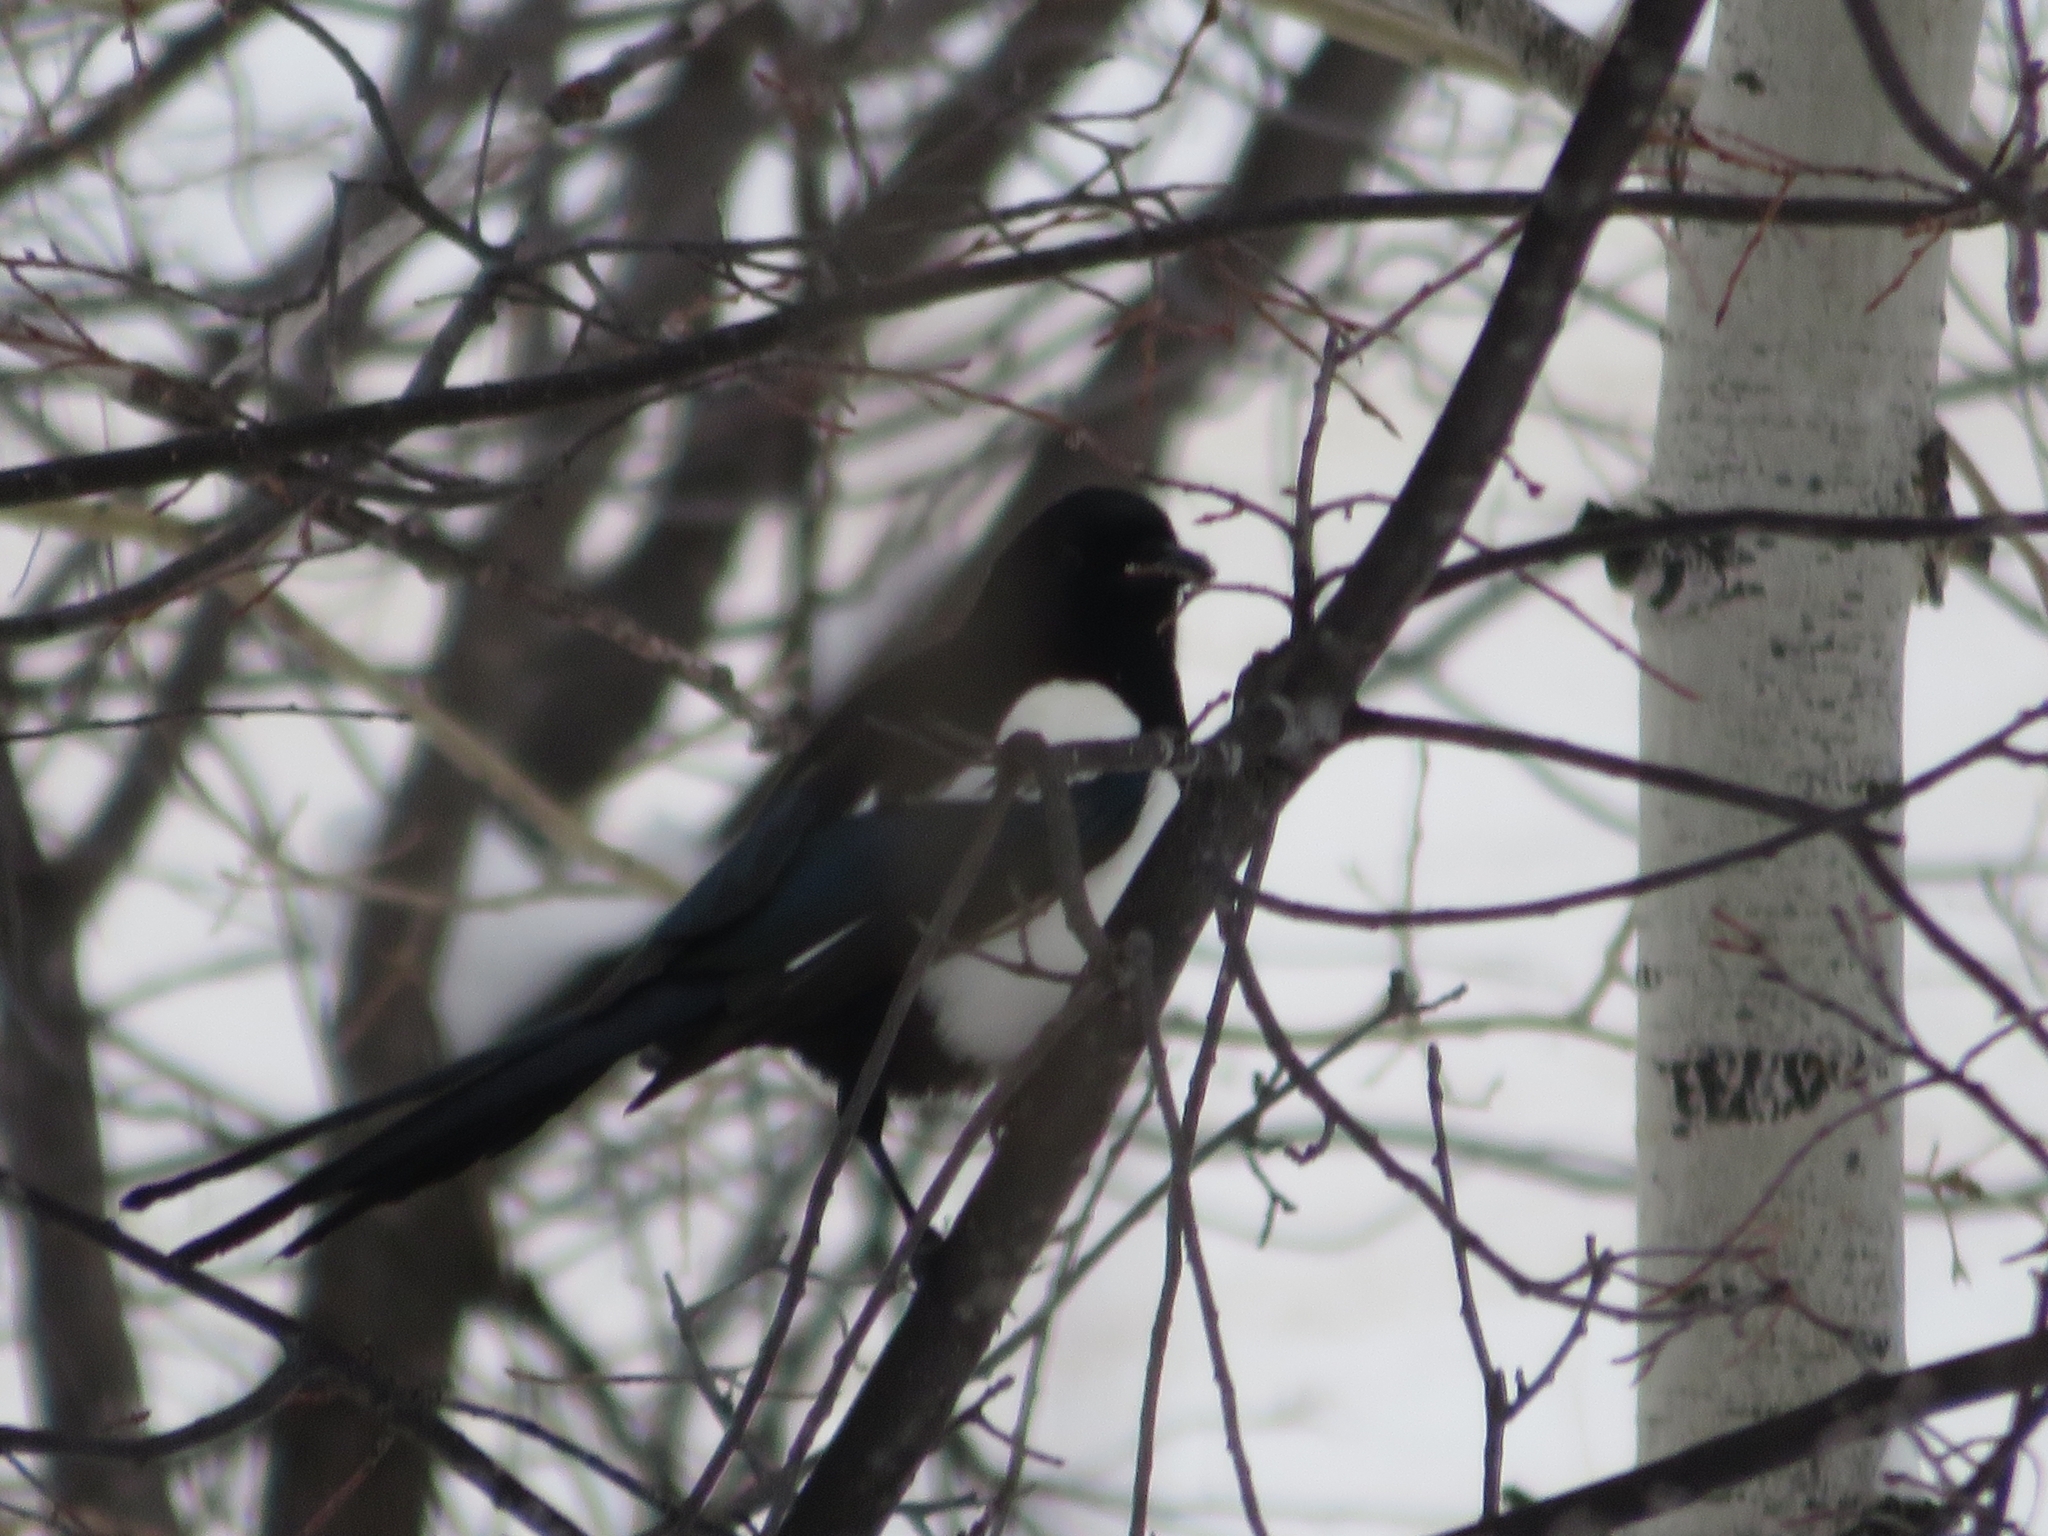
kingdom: Animalia
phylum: Chordata
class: Aves
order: Passeriformes
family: Corvidae
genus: Pica
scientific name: Pica hudsonia
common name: Black-billed magpie
